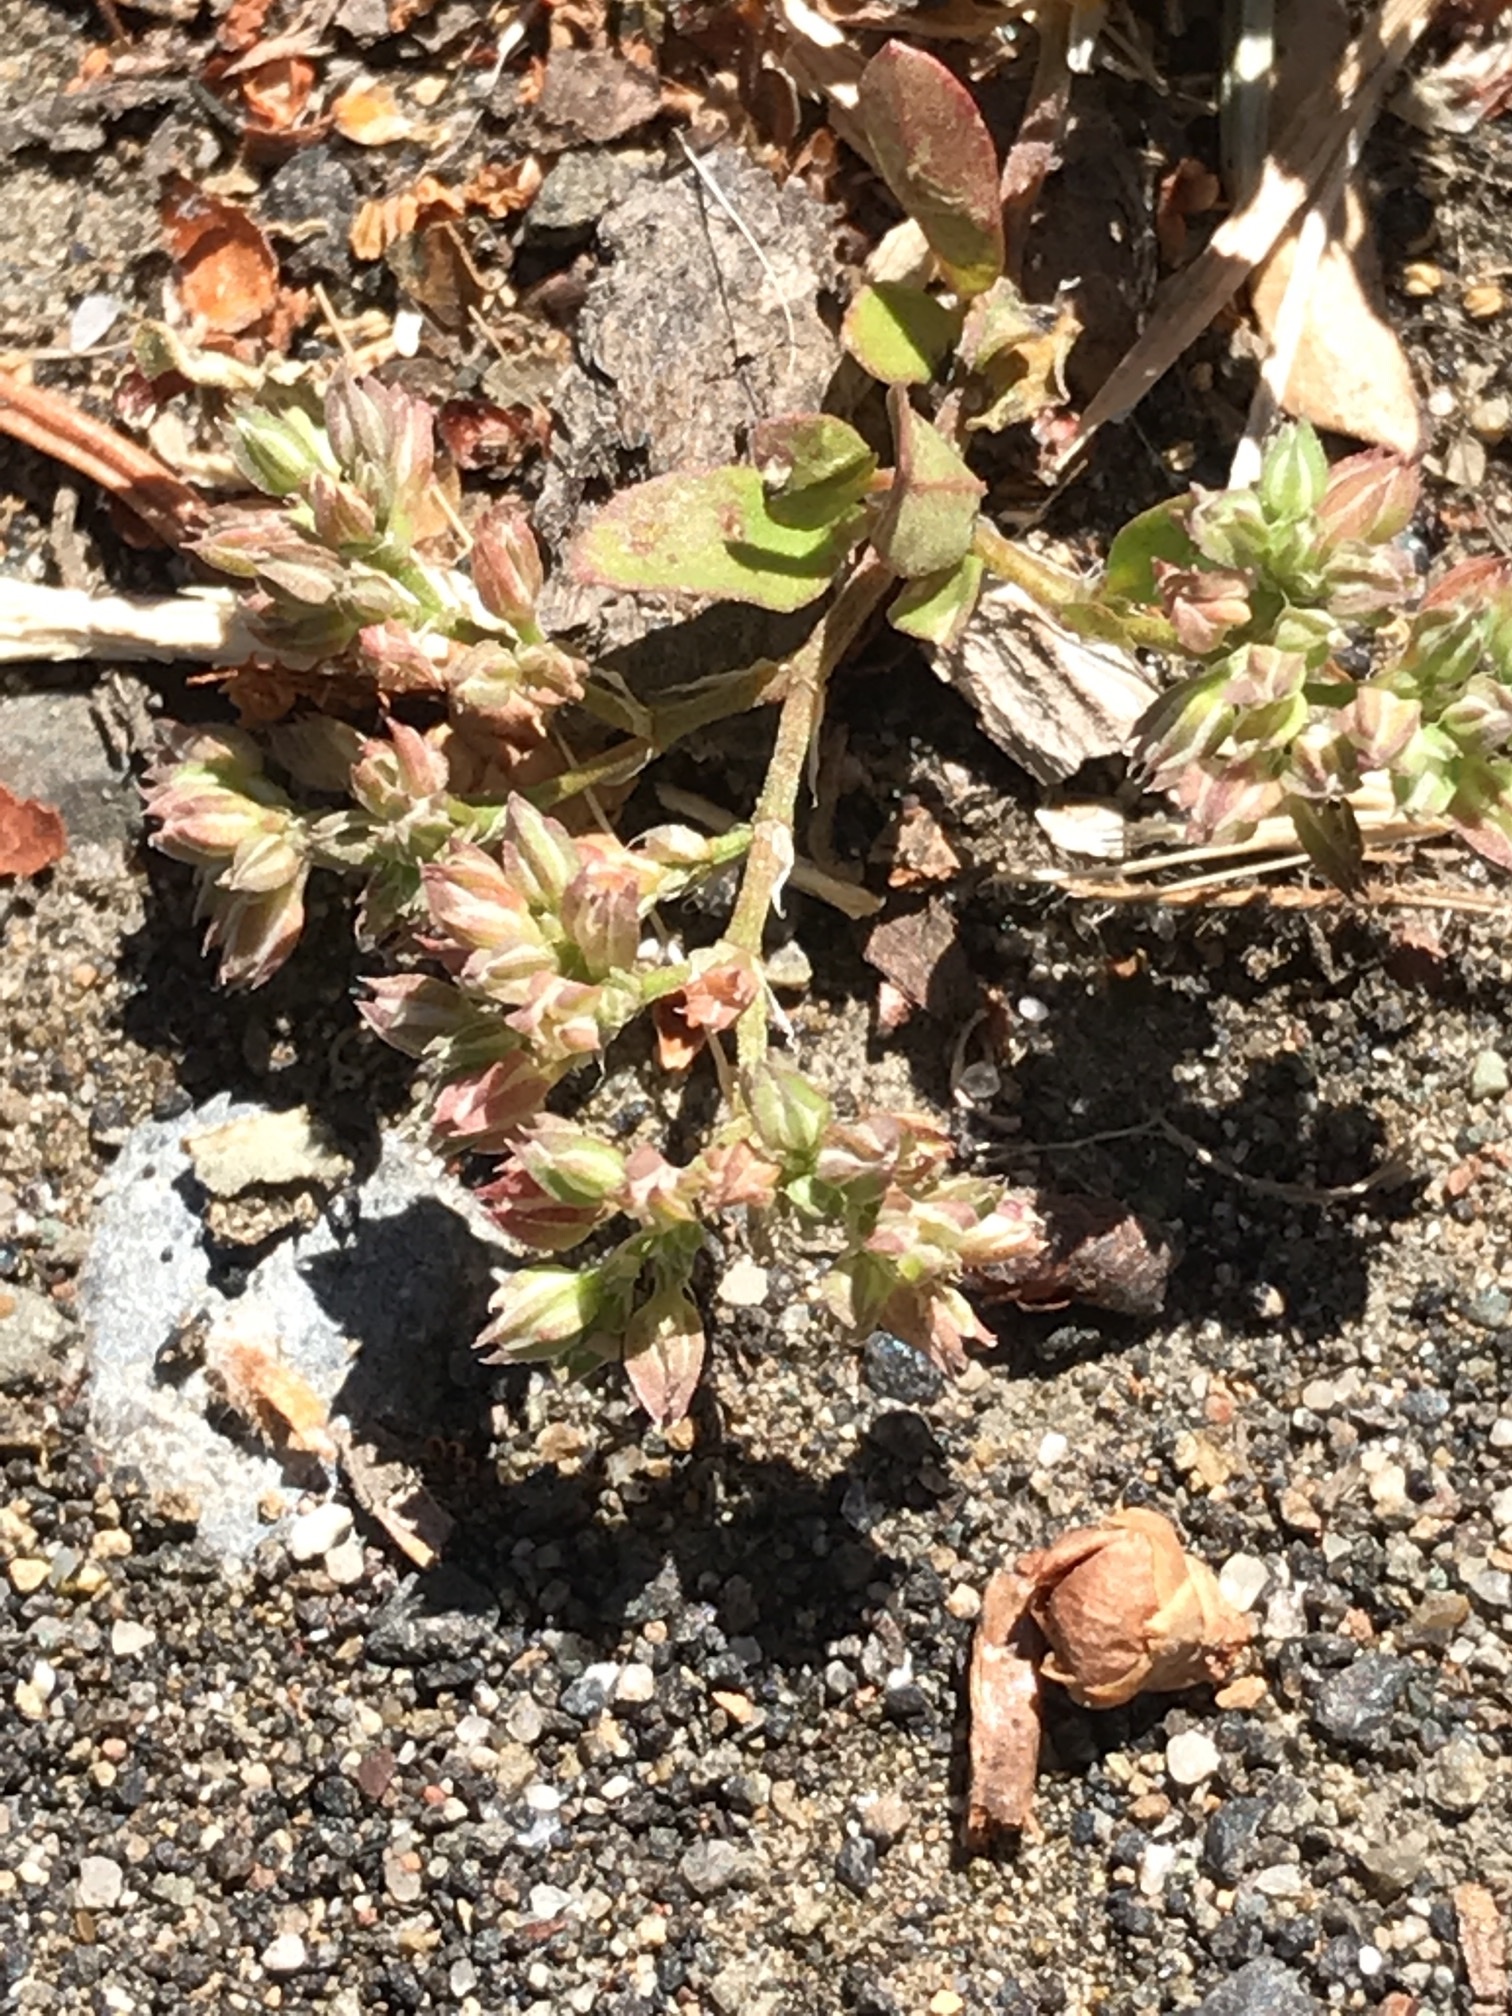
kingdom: Plantae
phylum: Tracheophyta
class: Magnoliopsida
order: Caryophyllales
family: Caryophyllaceae
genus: Polycarpon
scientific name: Polycarpon tetraphyllum
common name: Four-leaved all-seed
